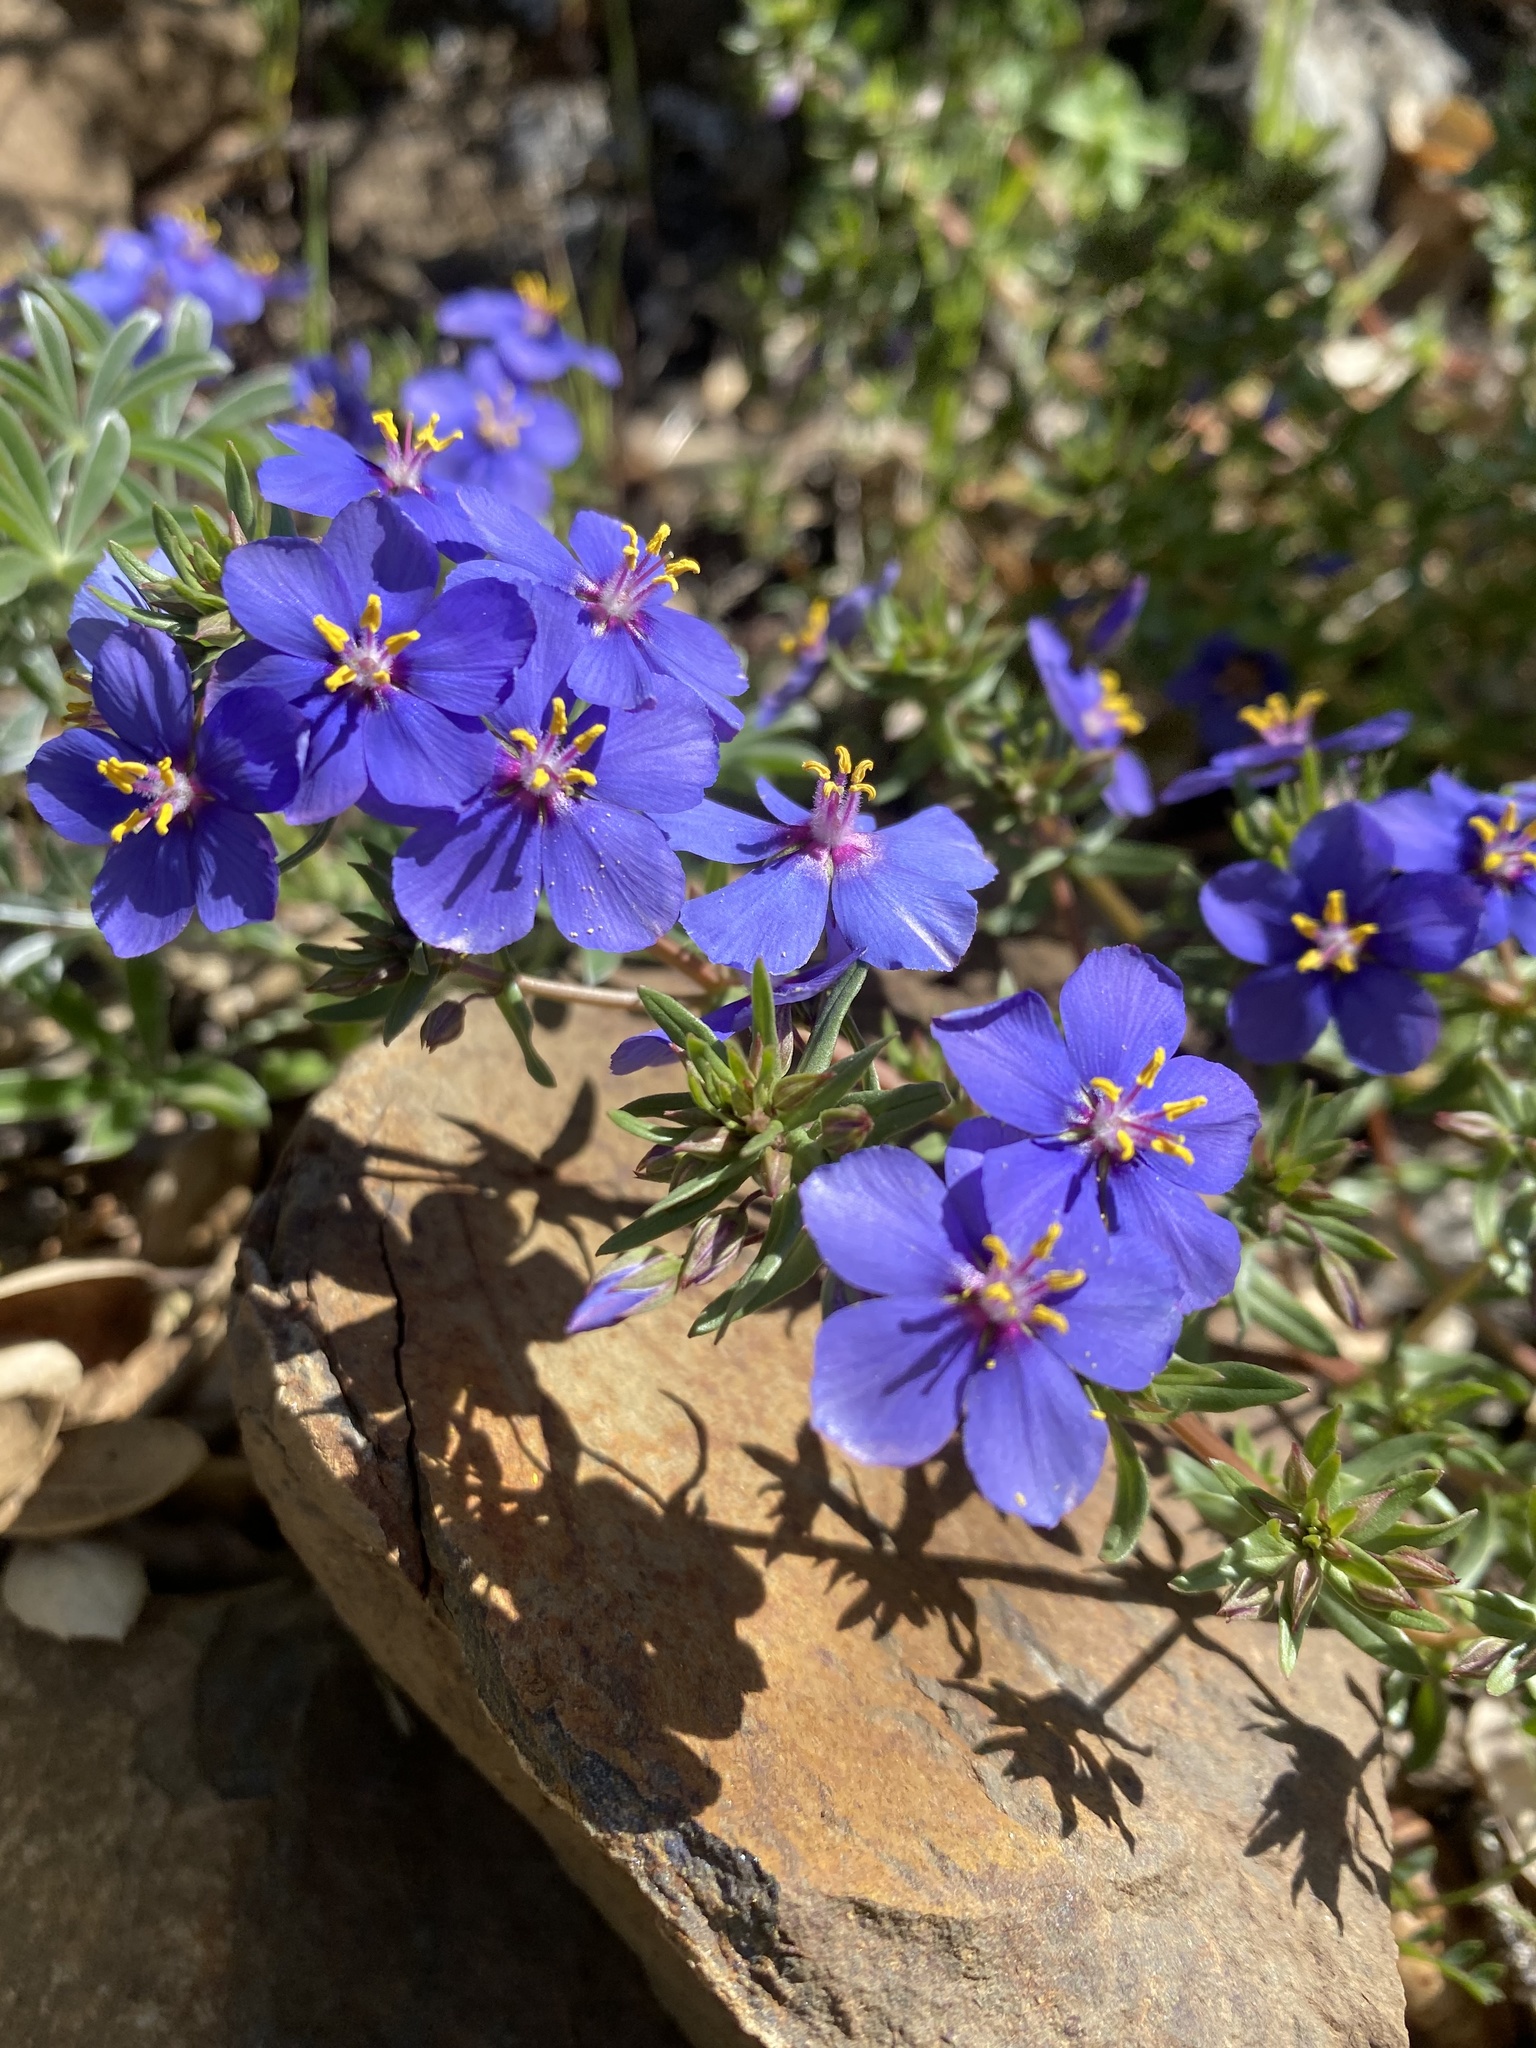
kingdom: Plantae
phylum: Tracheophyta
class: Magnoliopsida
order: Ericales
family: Primulaceae
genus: Lysimachia
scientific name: Lysimachia monelli
